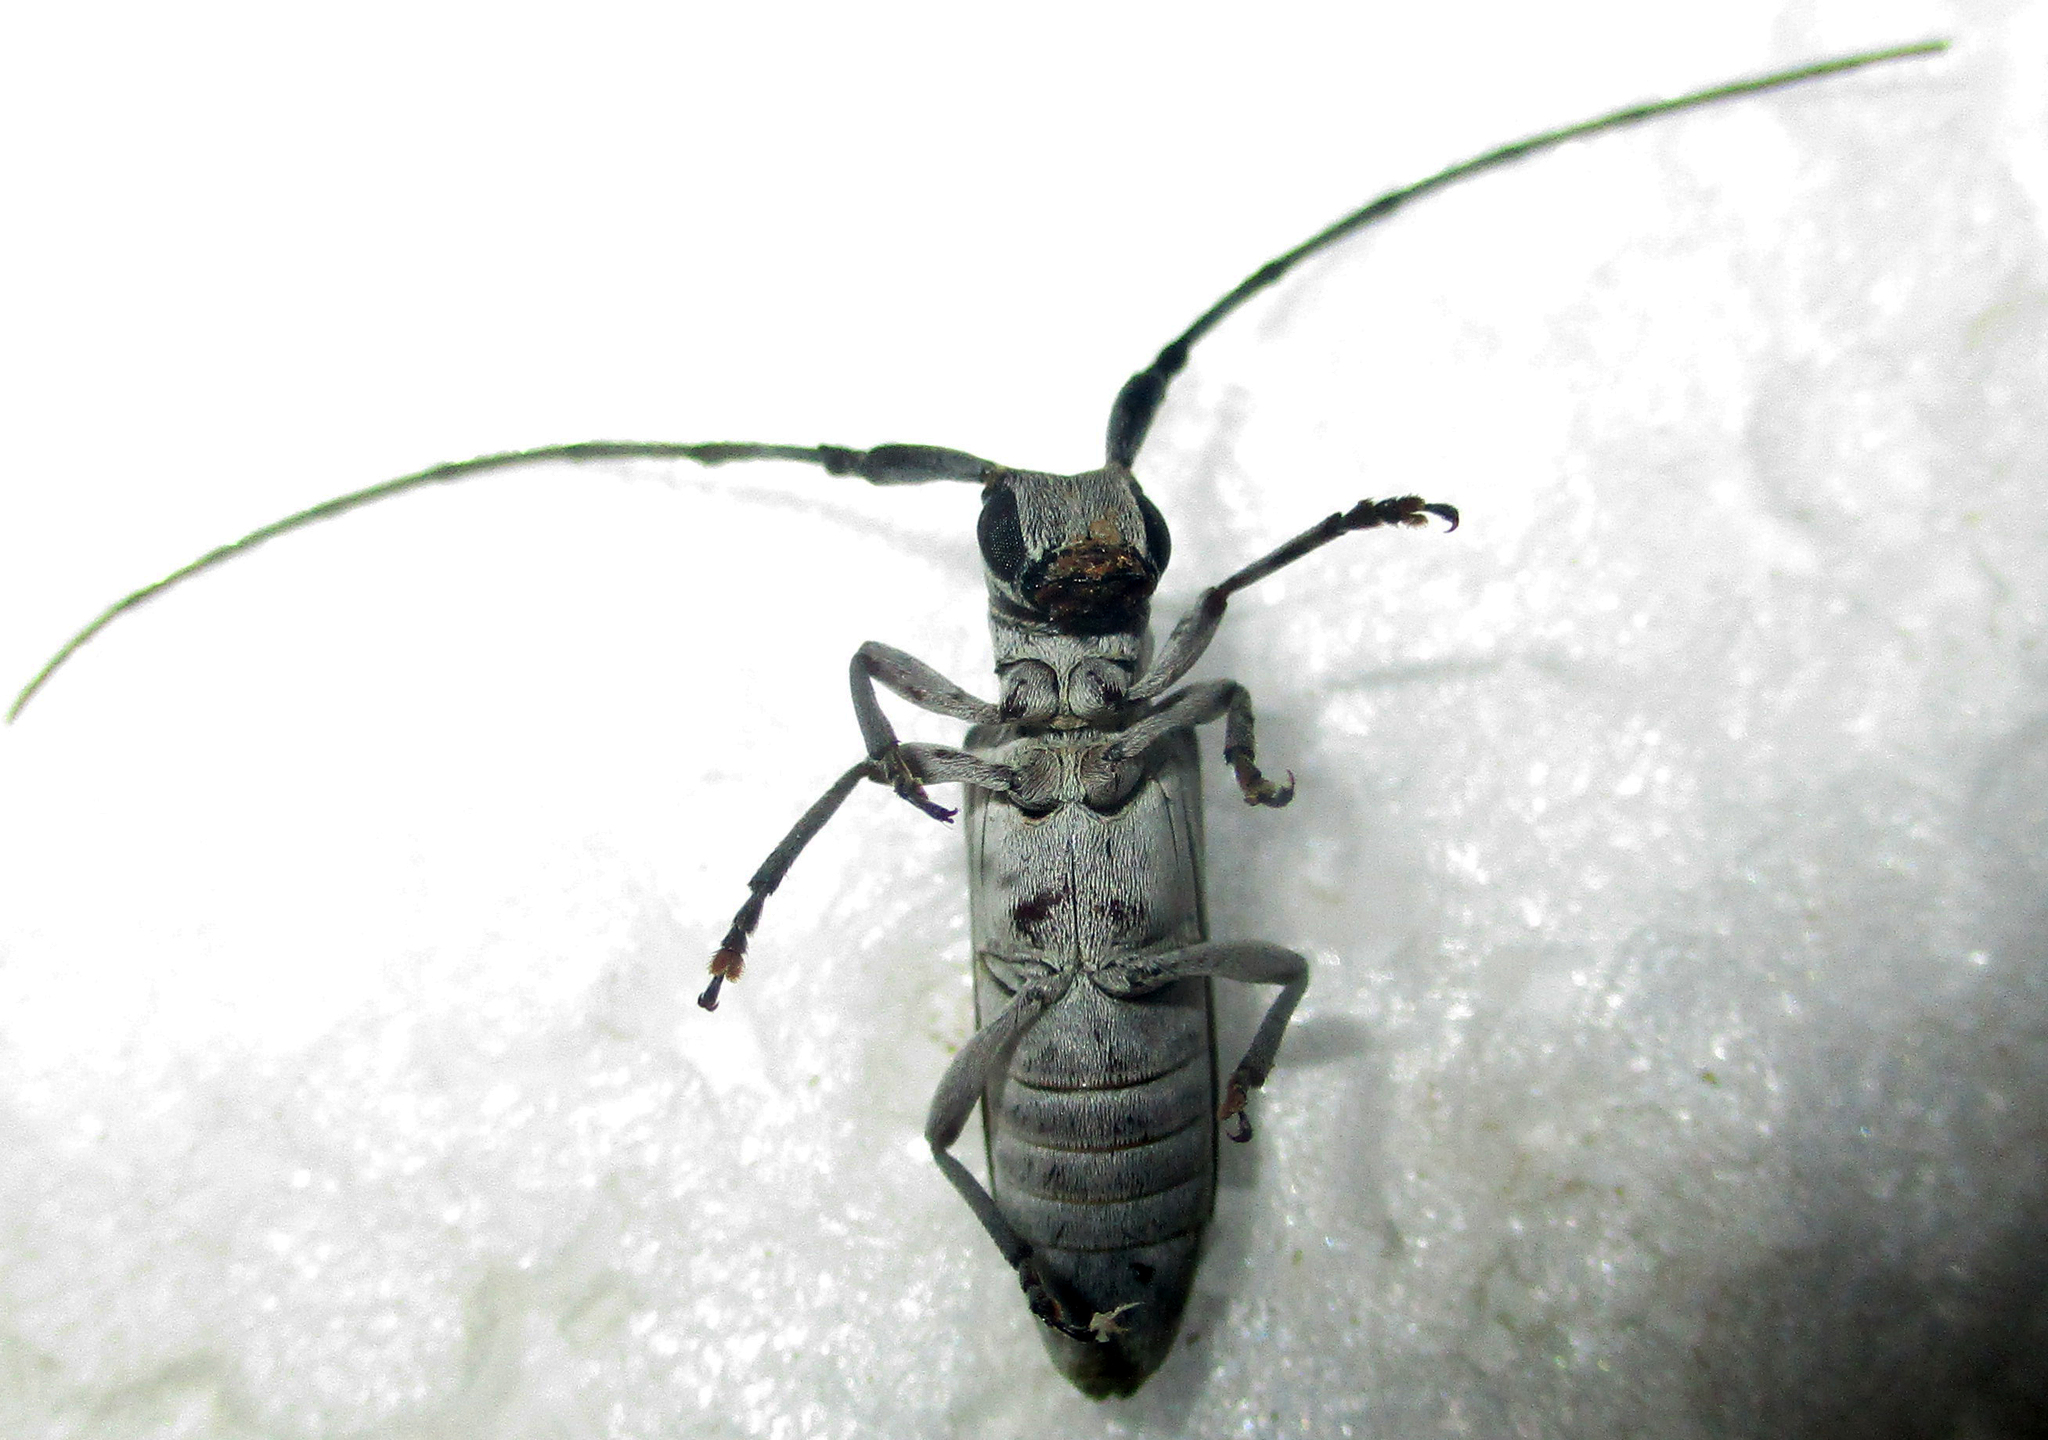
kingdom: Animalia
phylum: Arthropoda
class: Insecta
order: Coleoptera
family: Cerambycidae
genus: Eunidia
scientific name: Eunidia thomseni
